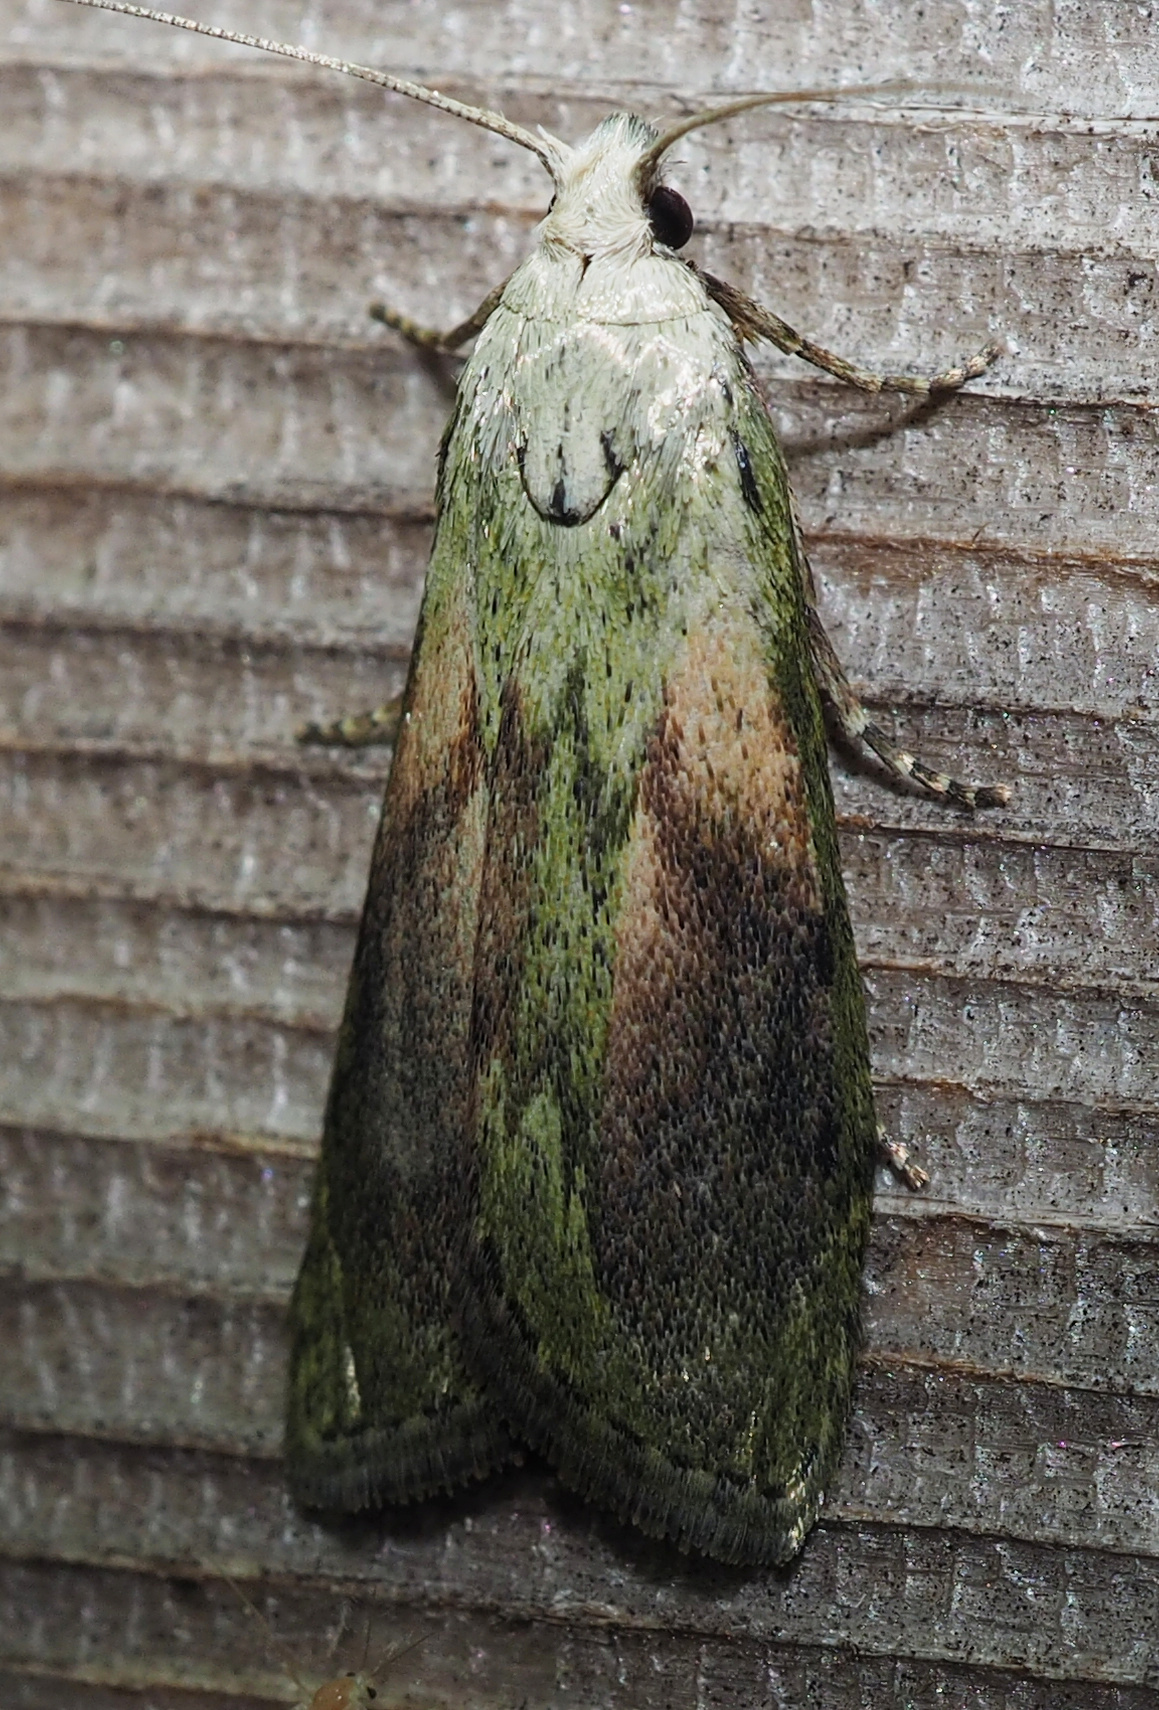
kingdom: Animalia
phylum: Arthropoda
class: Insecta
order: Lepidoptera
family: Pyralidae
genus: Aphomia
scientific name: Aphomia sociella
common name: Bee moth
